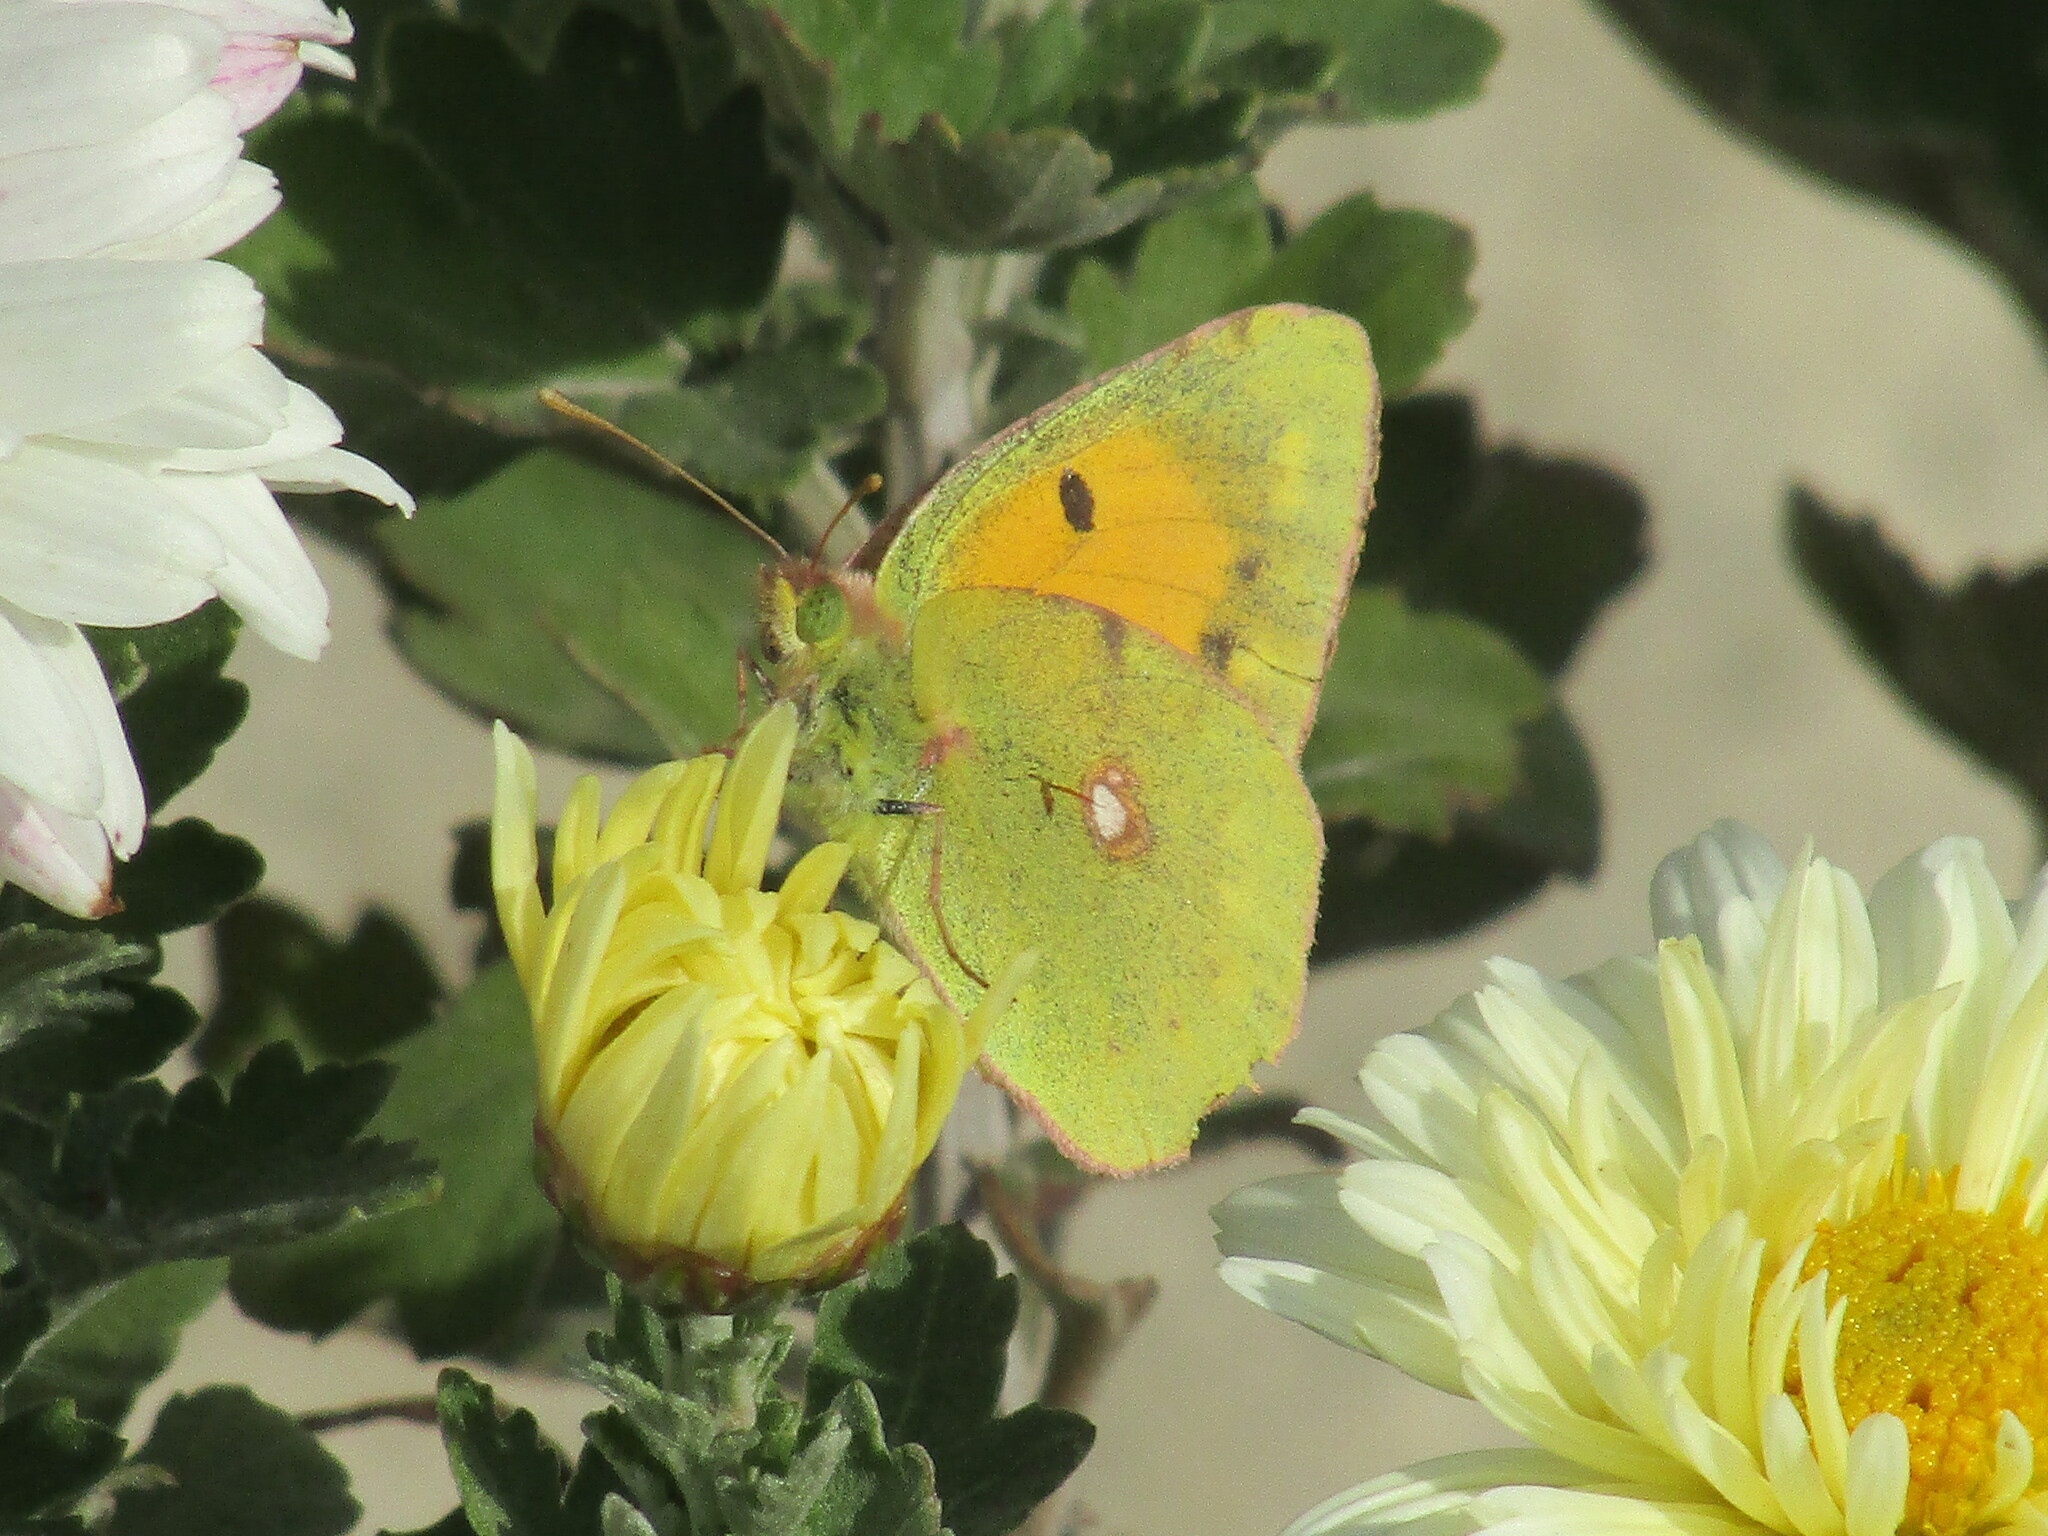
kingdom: Animalia
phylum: Arthropoda
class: Insecta
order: Lepidoptera
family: Pieridae
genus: Colias
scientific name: Colias croceus
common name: Clouded yellow
